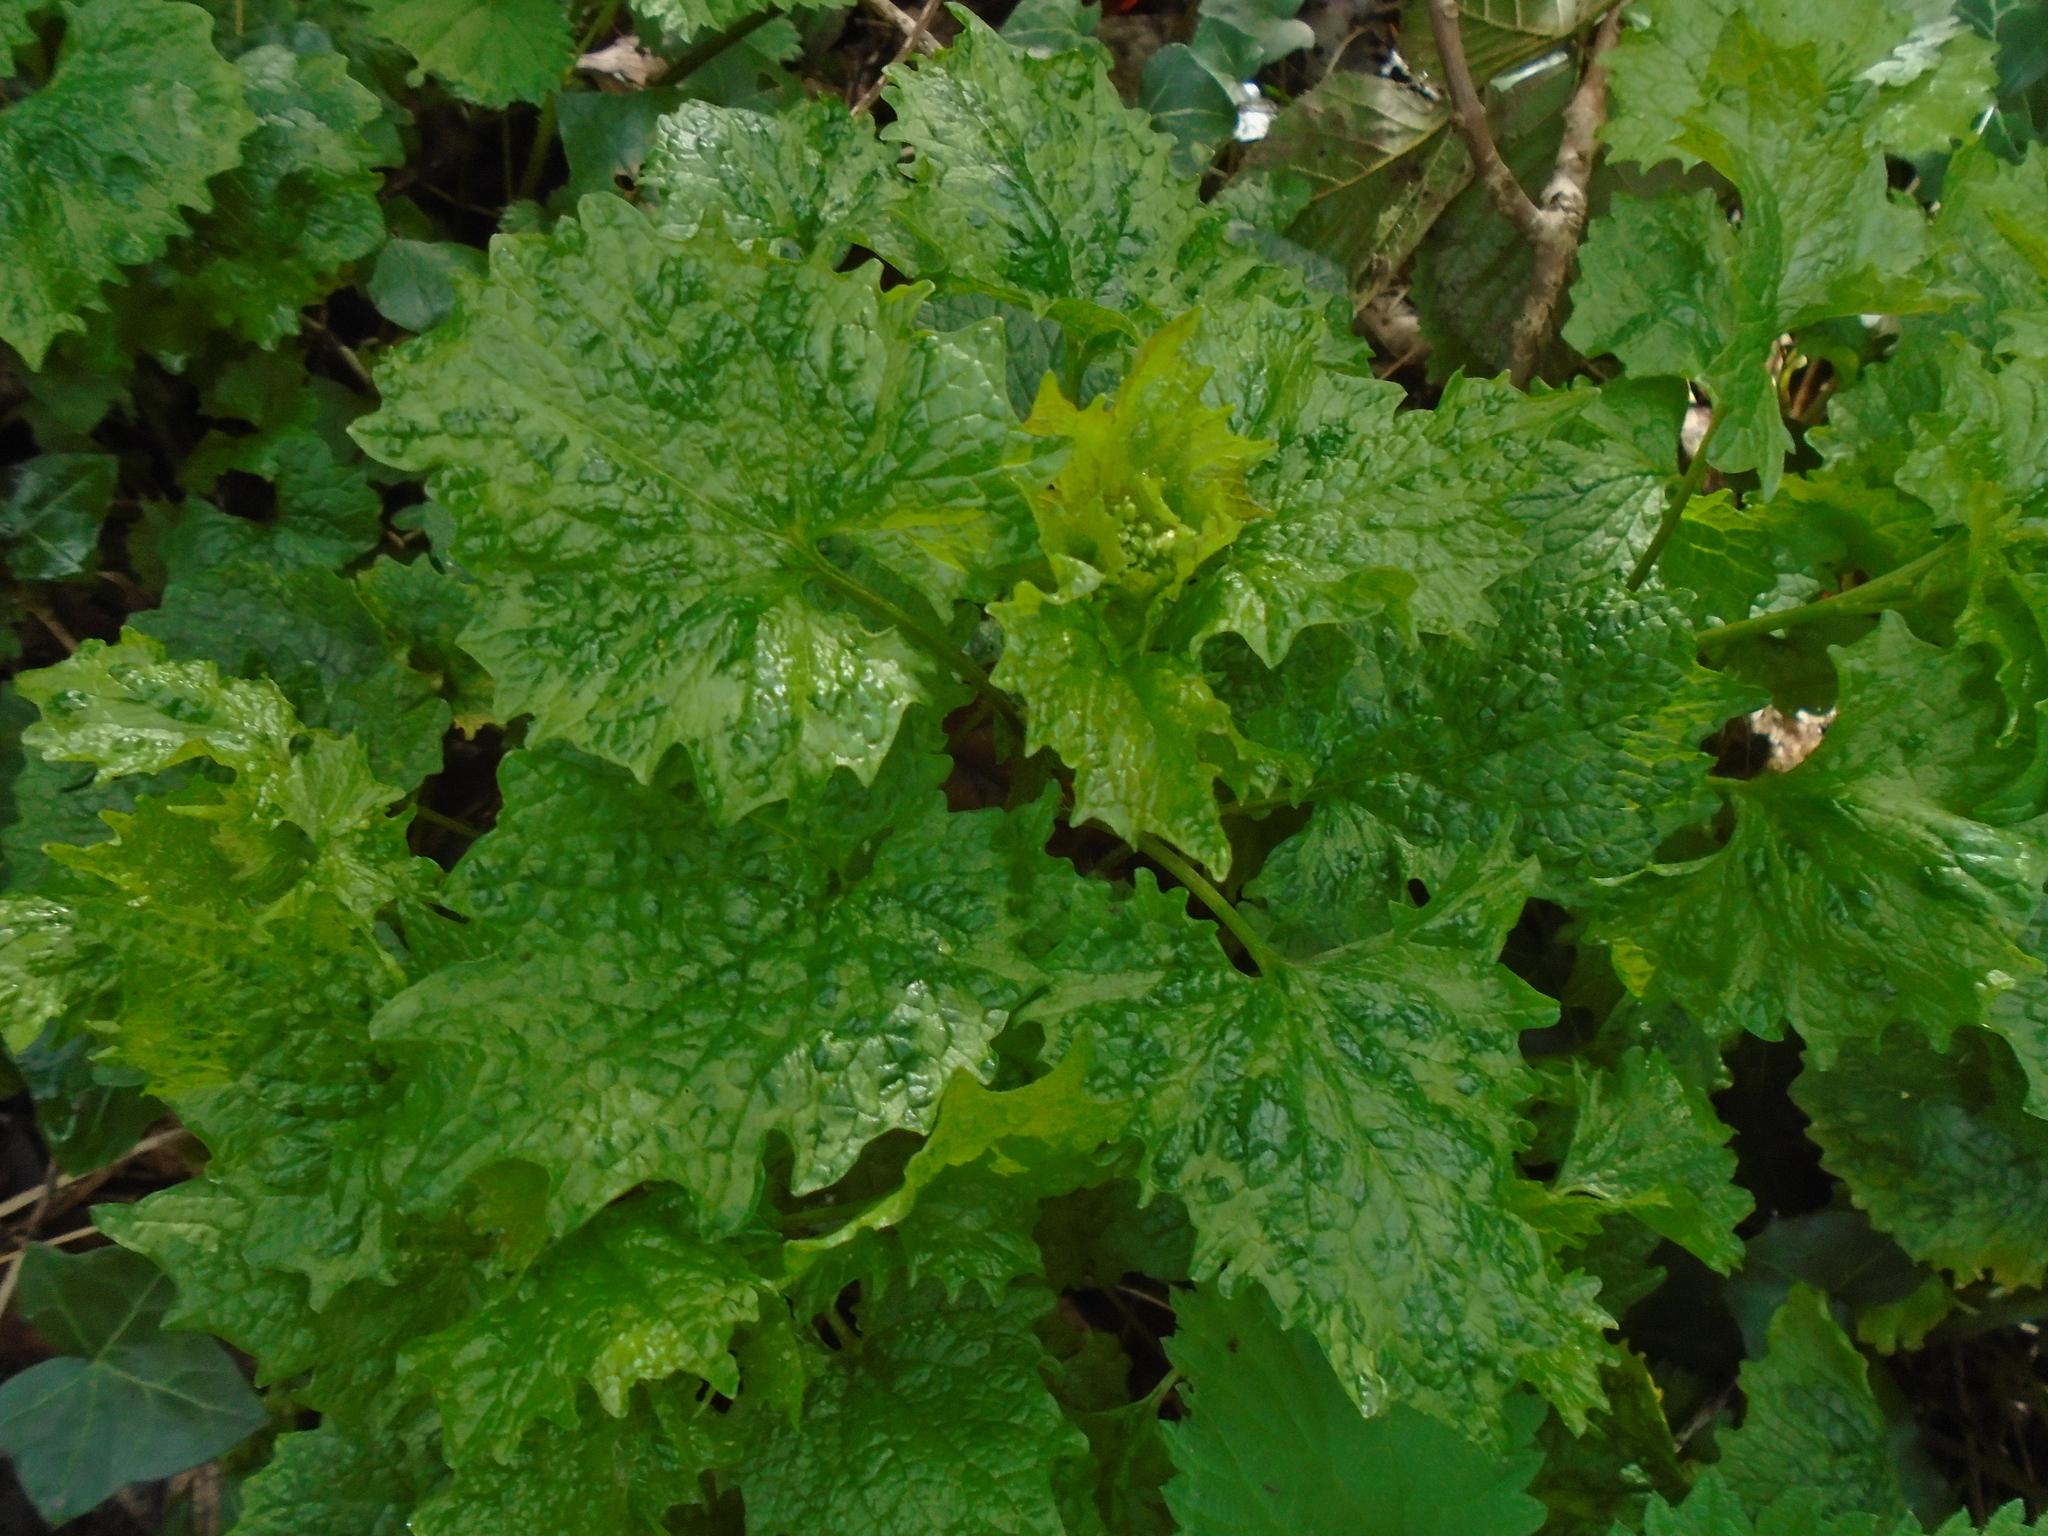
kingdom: Plantae
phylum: Tracheophyta
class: Magnoliopsida
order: Brassicales
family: Brassicaceae
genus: Alliaria
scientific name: Alliaria petiolata
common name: Garlic mustard
